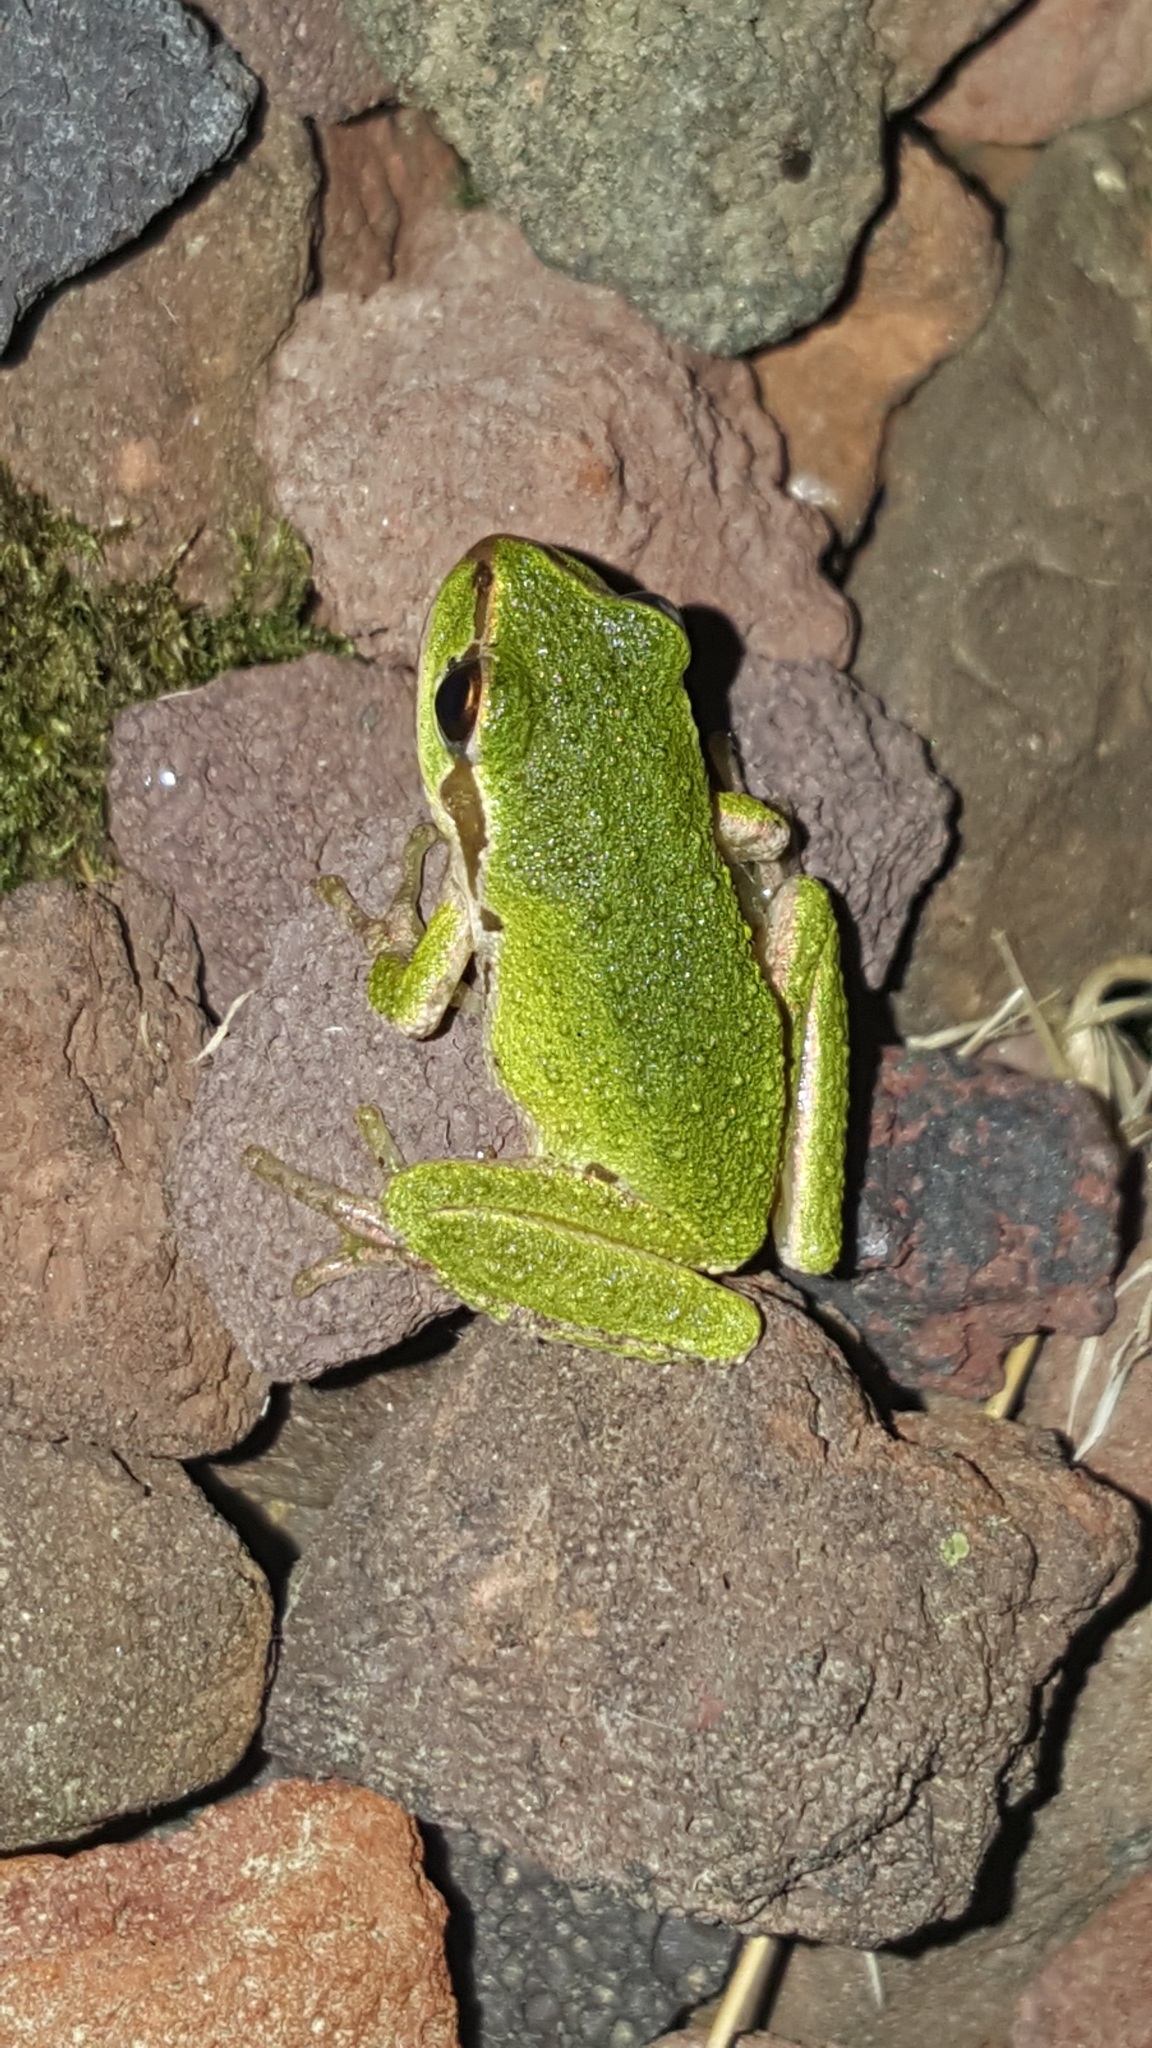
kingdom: Animalia
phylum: Chordata
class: Amphibia
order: Anura
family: Hylidae
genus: Pseudacris
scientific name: Pseudacris regilla
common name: Pacific chorus frog
